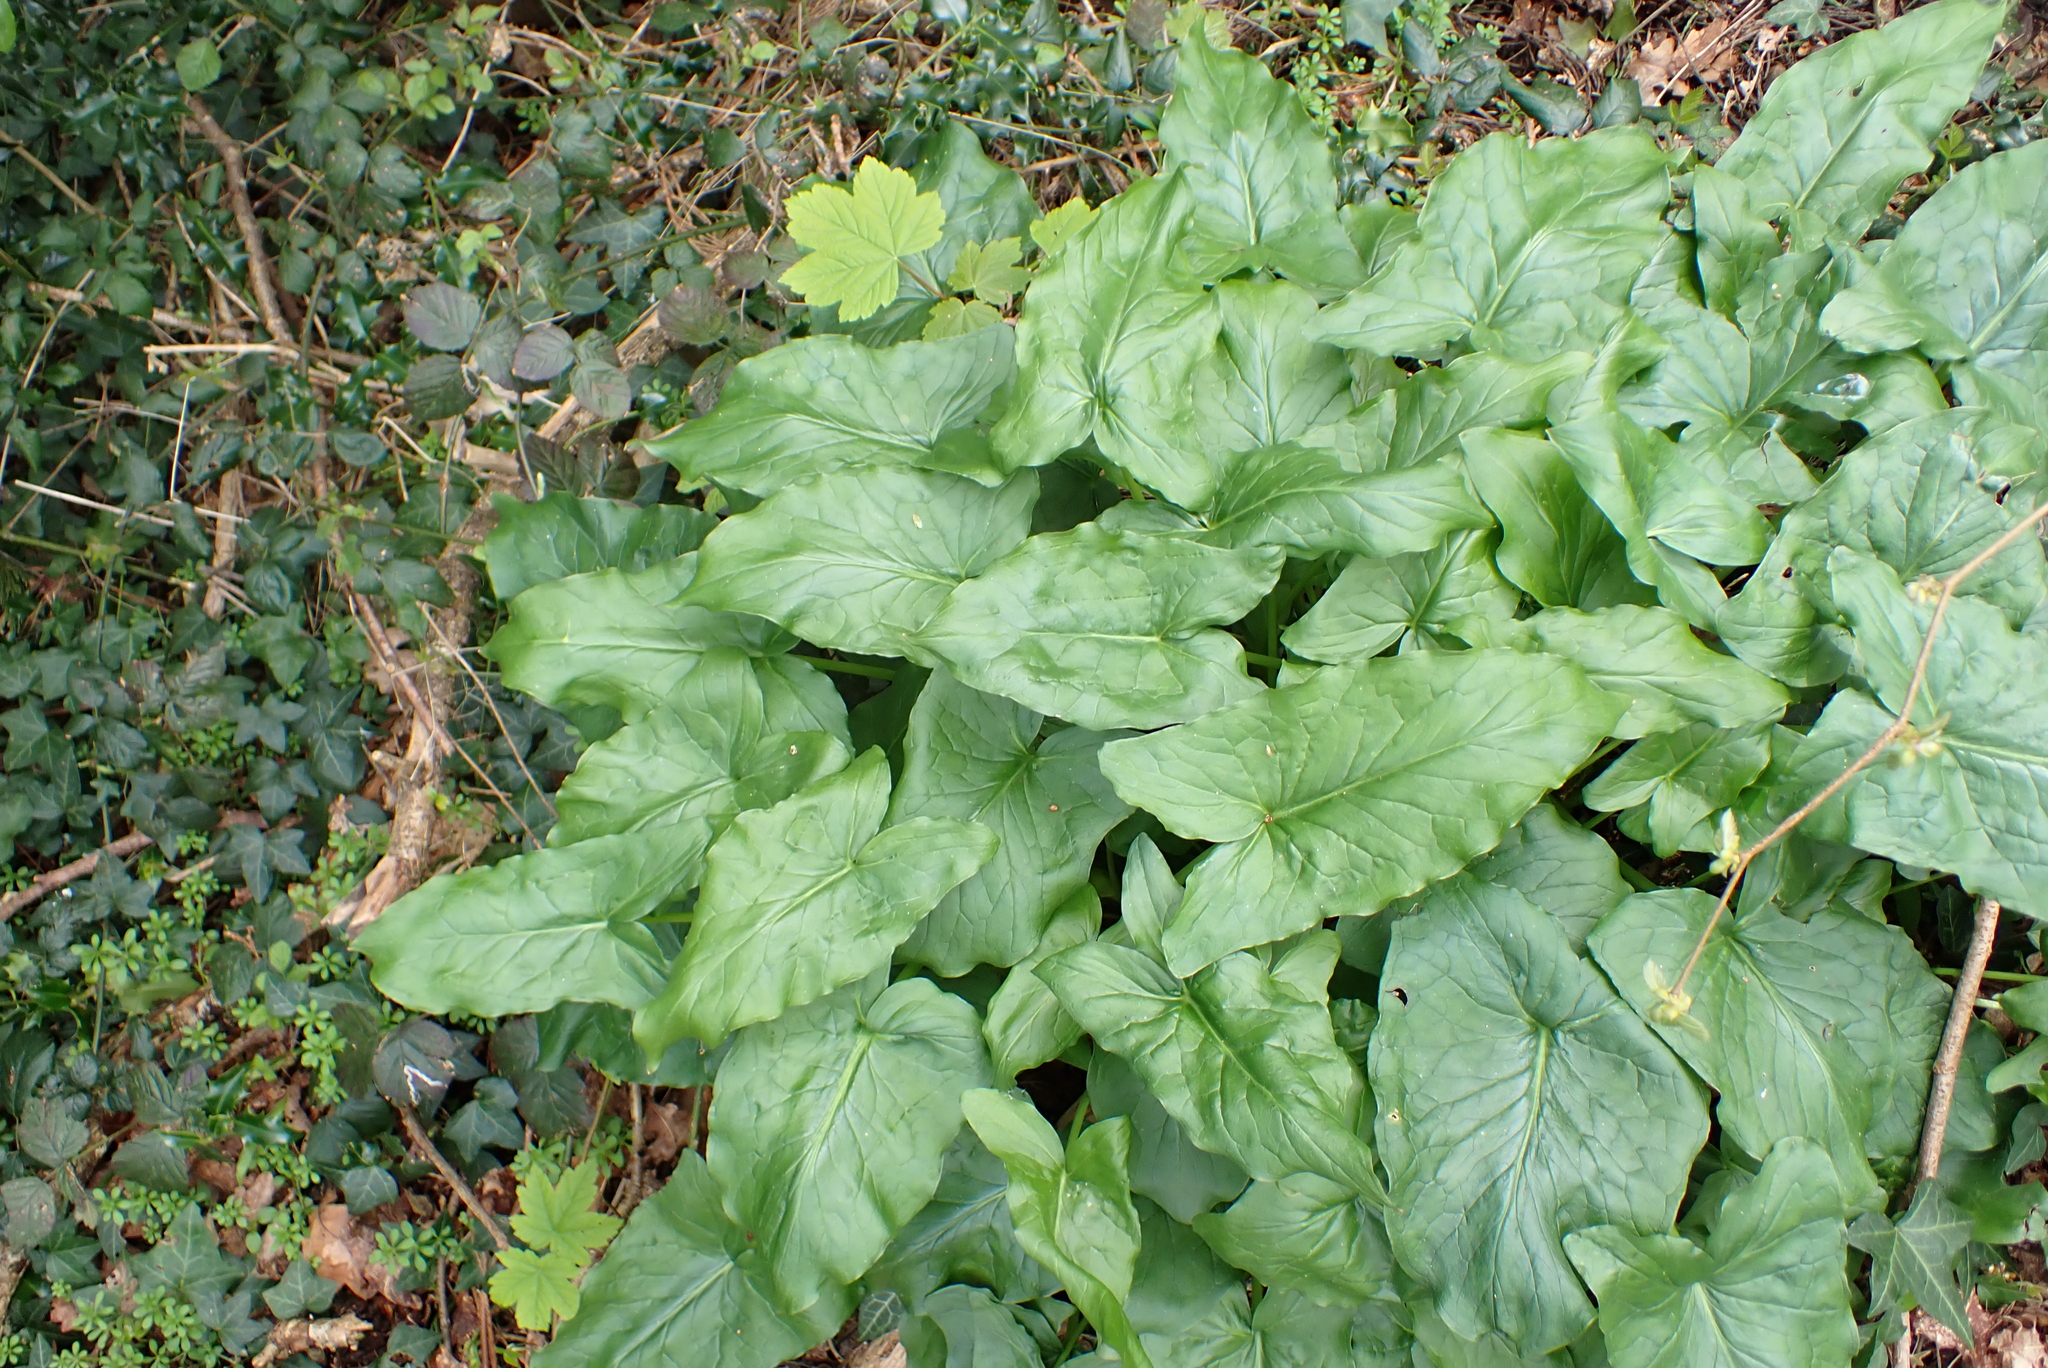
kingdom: Plantae
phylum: Tracheophyta
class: Liliopsida
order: Alismatales
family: Araceae
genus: Arum
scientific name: Arum maculatum
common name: Lords-and-ladies
